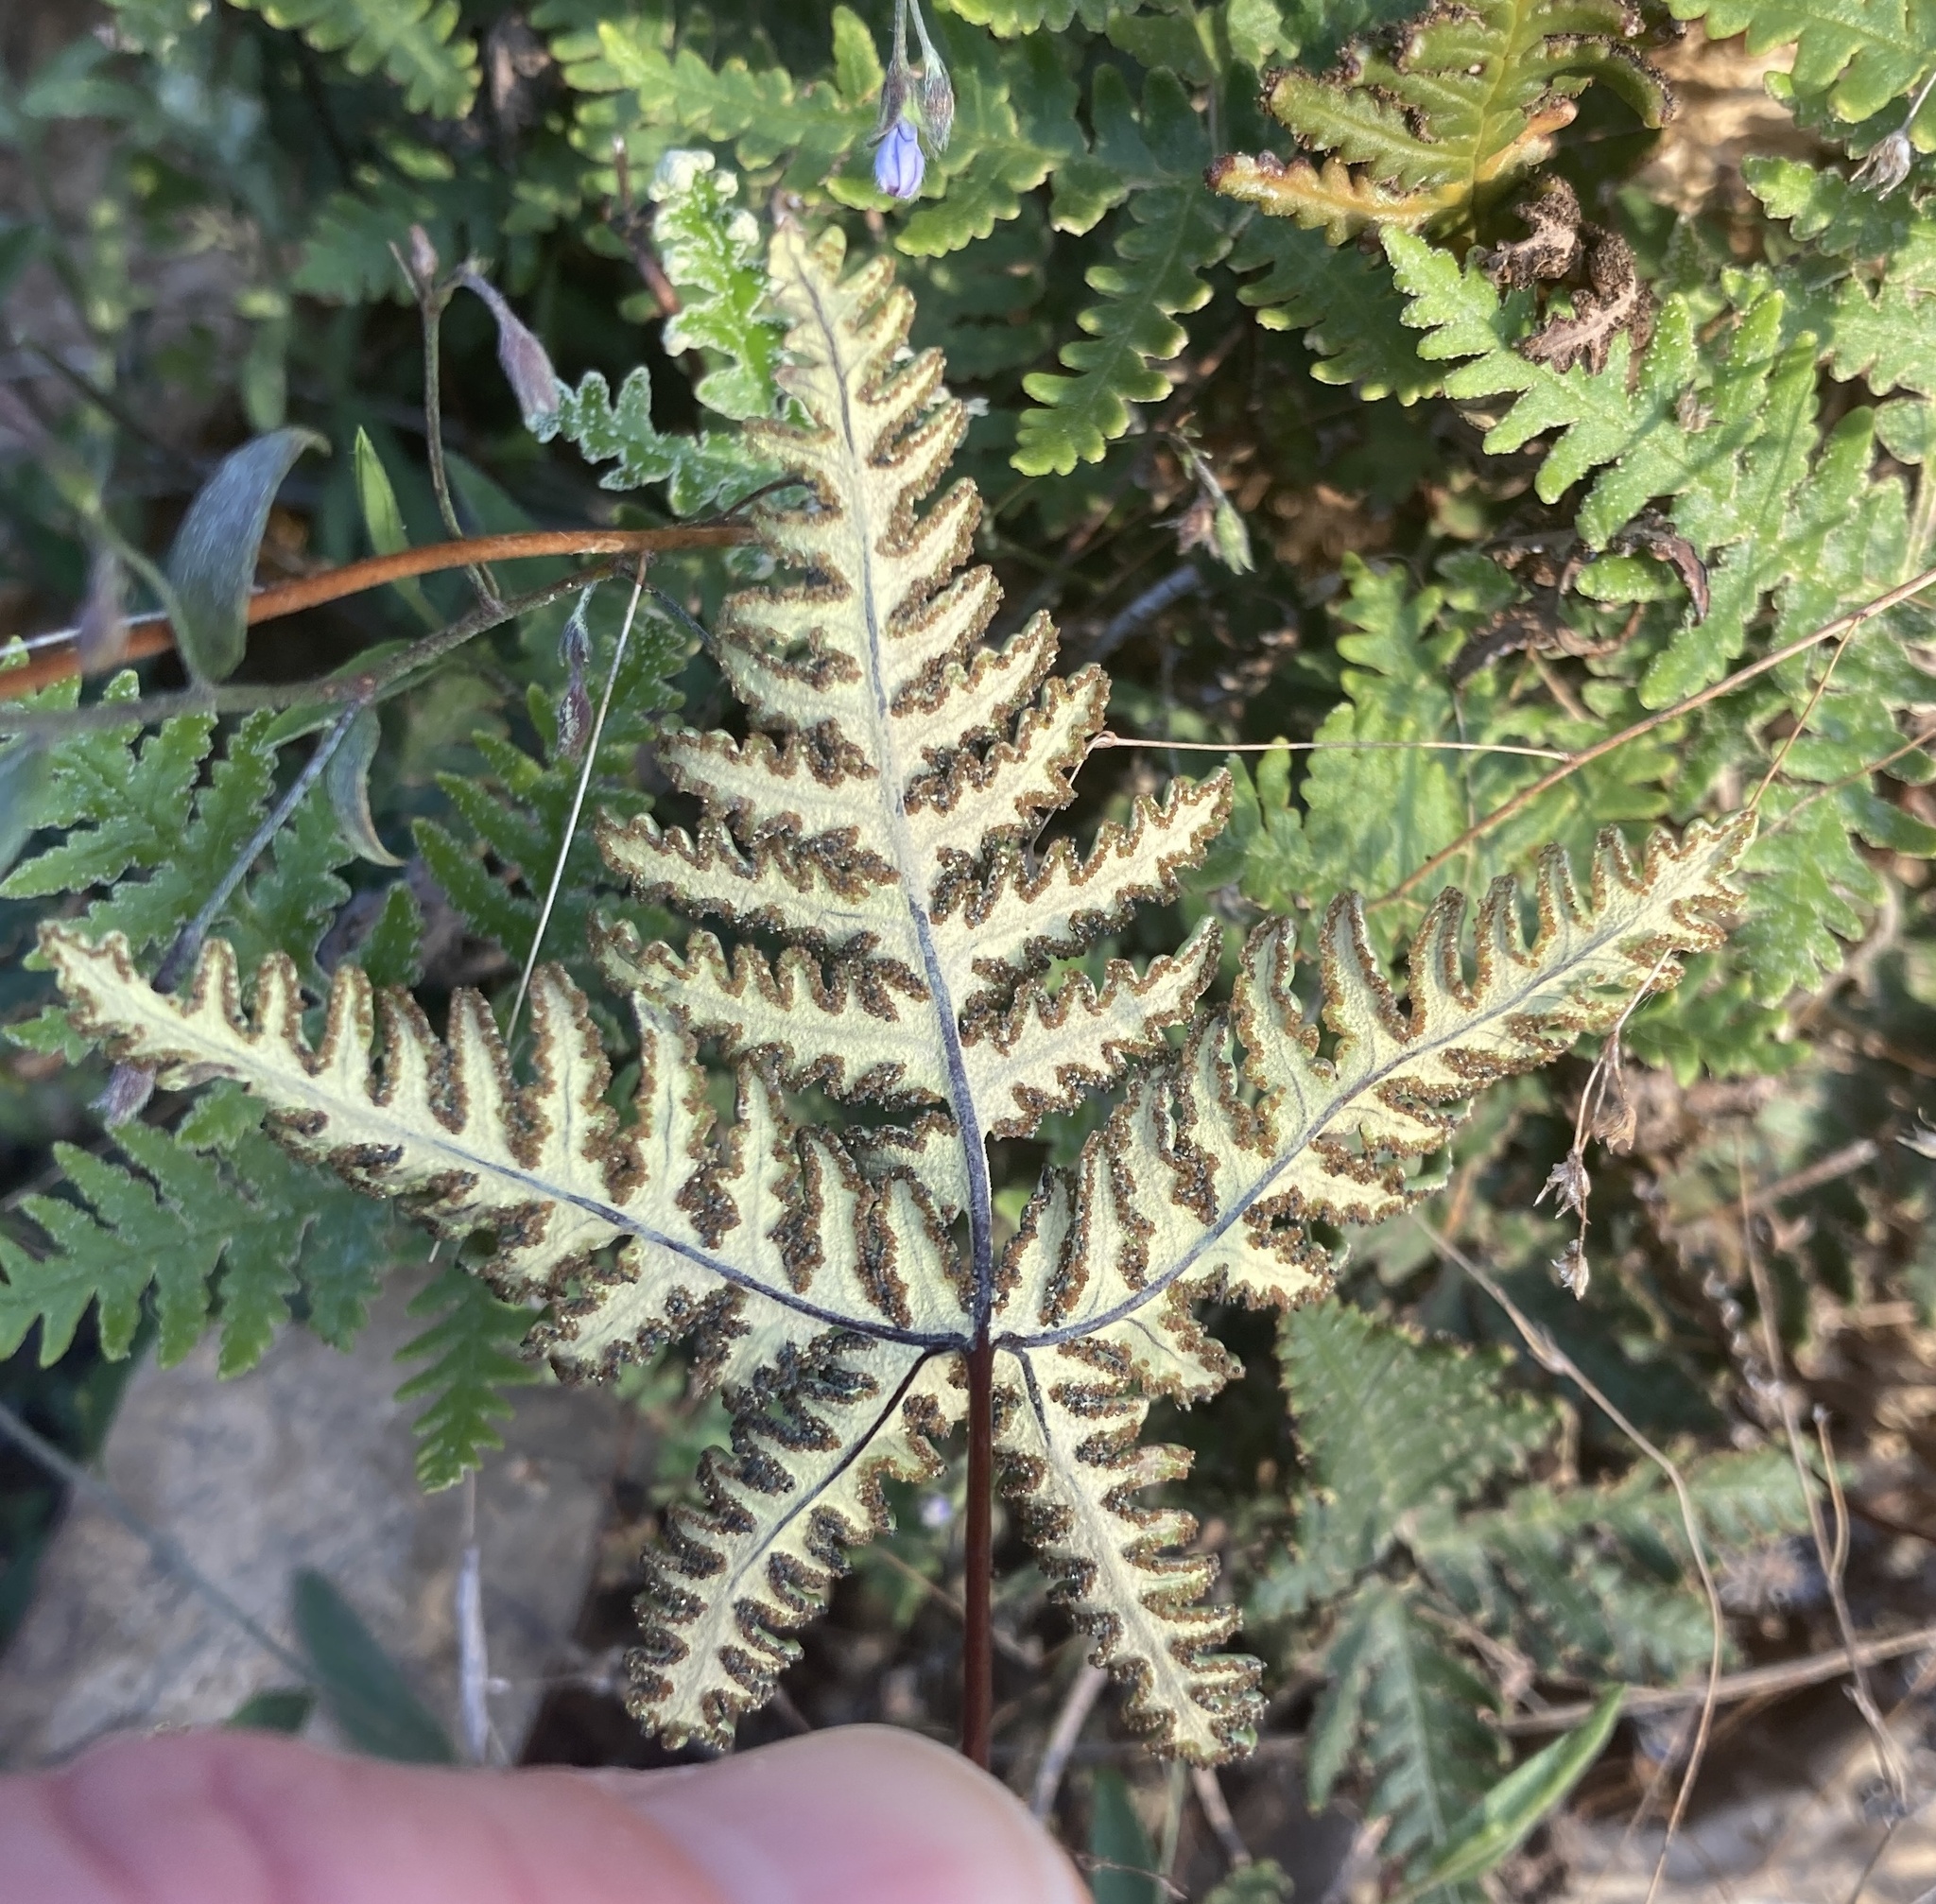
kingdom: Plantae
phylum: Tracheophyta
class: Polypodiopsida
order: Polypodiales
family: Pteridaceae
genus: Notholaena
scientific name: Notholaena standleyi
